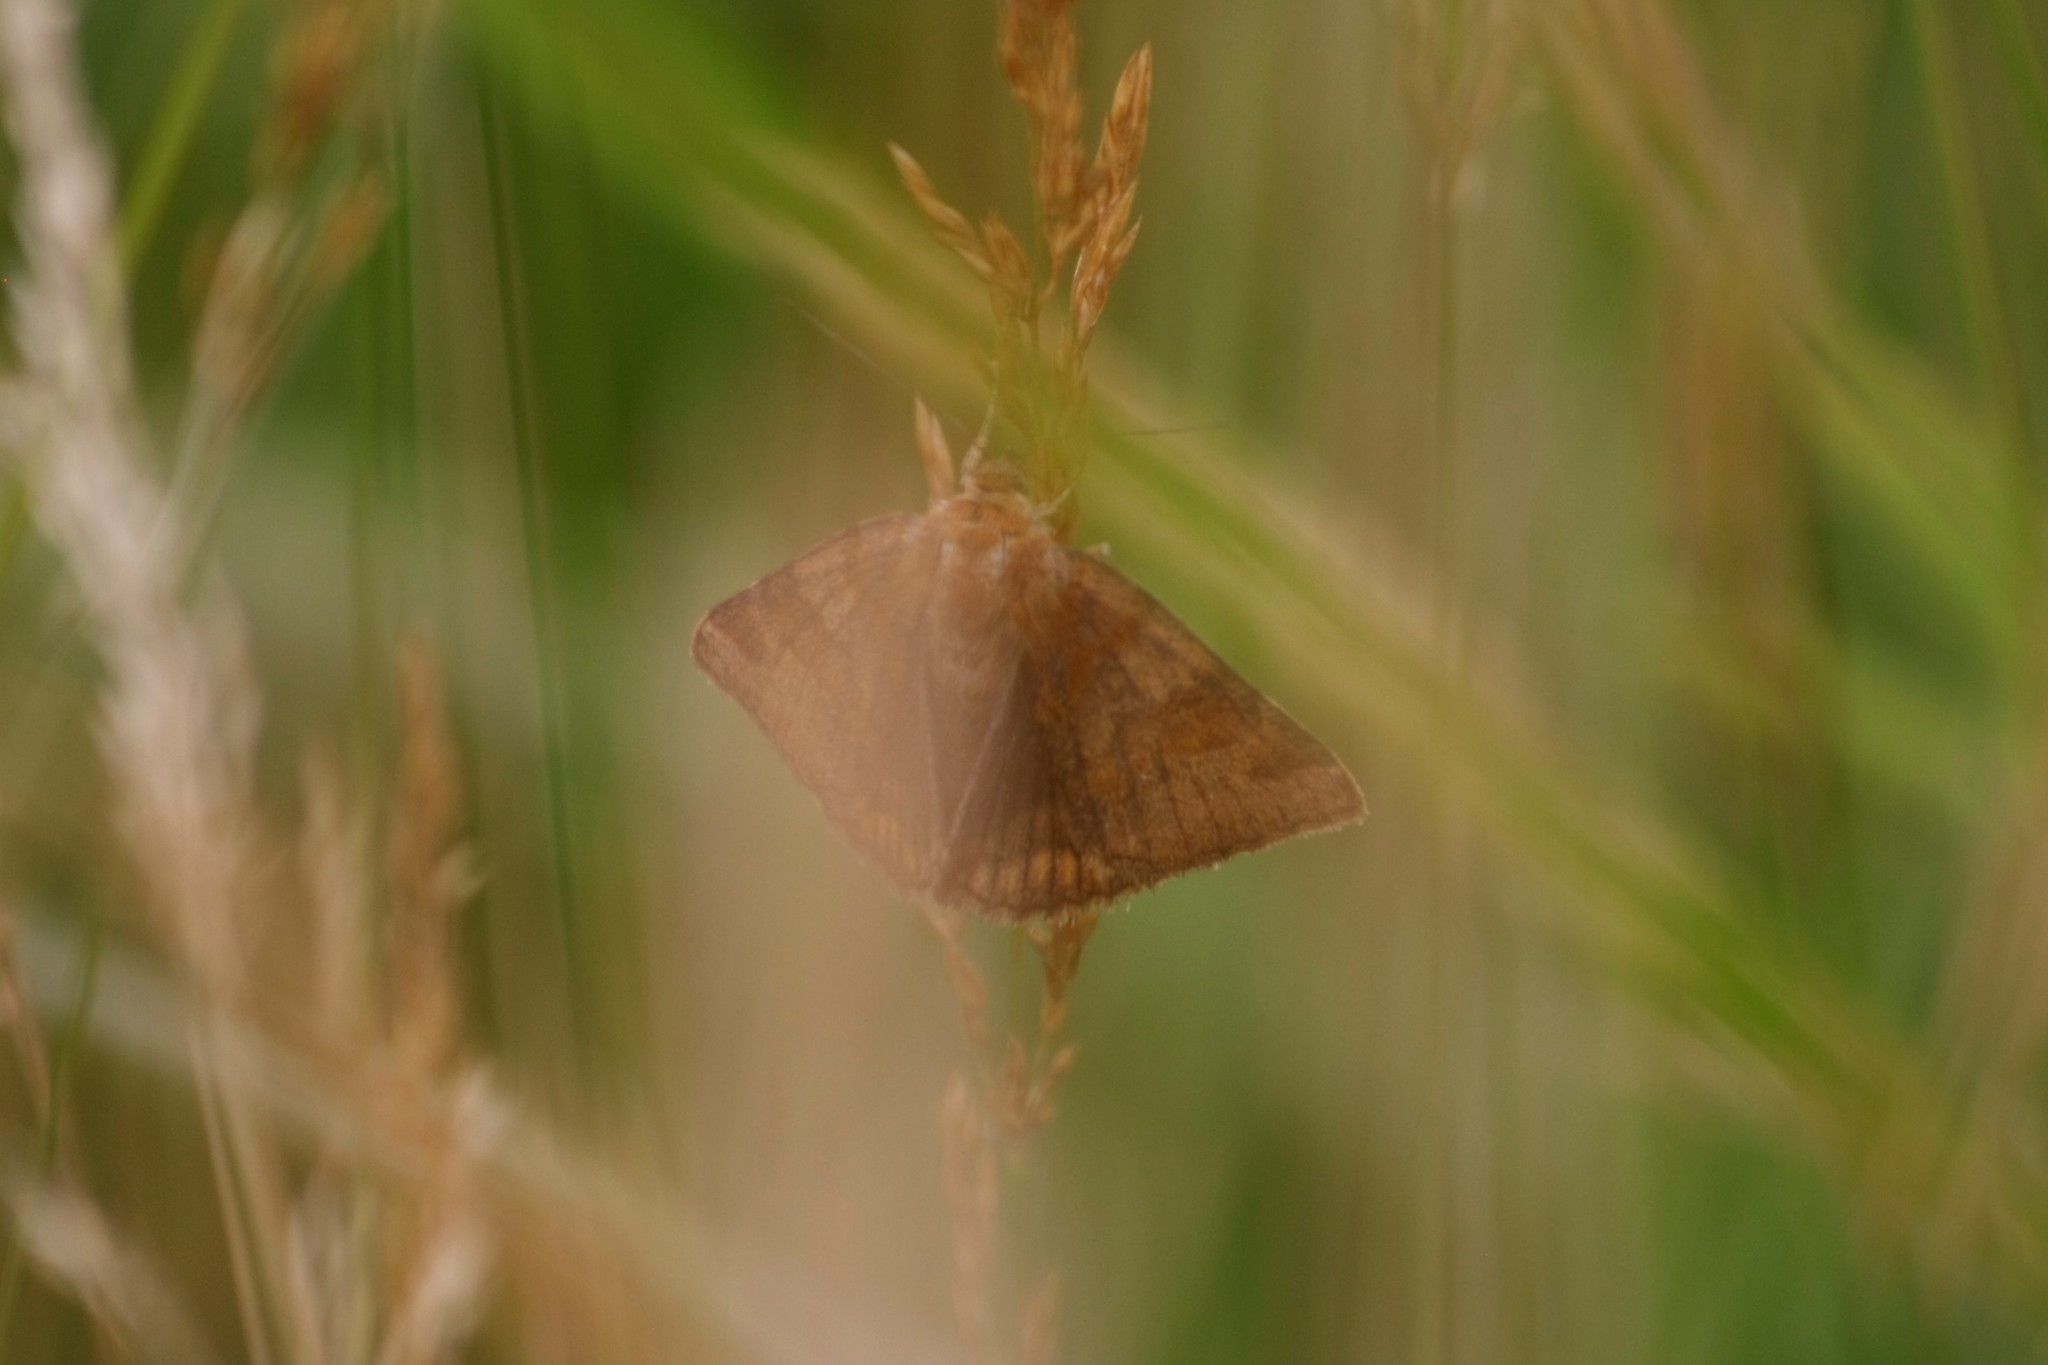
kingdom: Animalia
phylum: Arthropoda
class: Insecta
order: Lepidoptera
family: Erebidae
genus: Euclidia
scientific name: Euclidia glyphica
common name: Burnet companion
